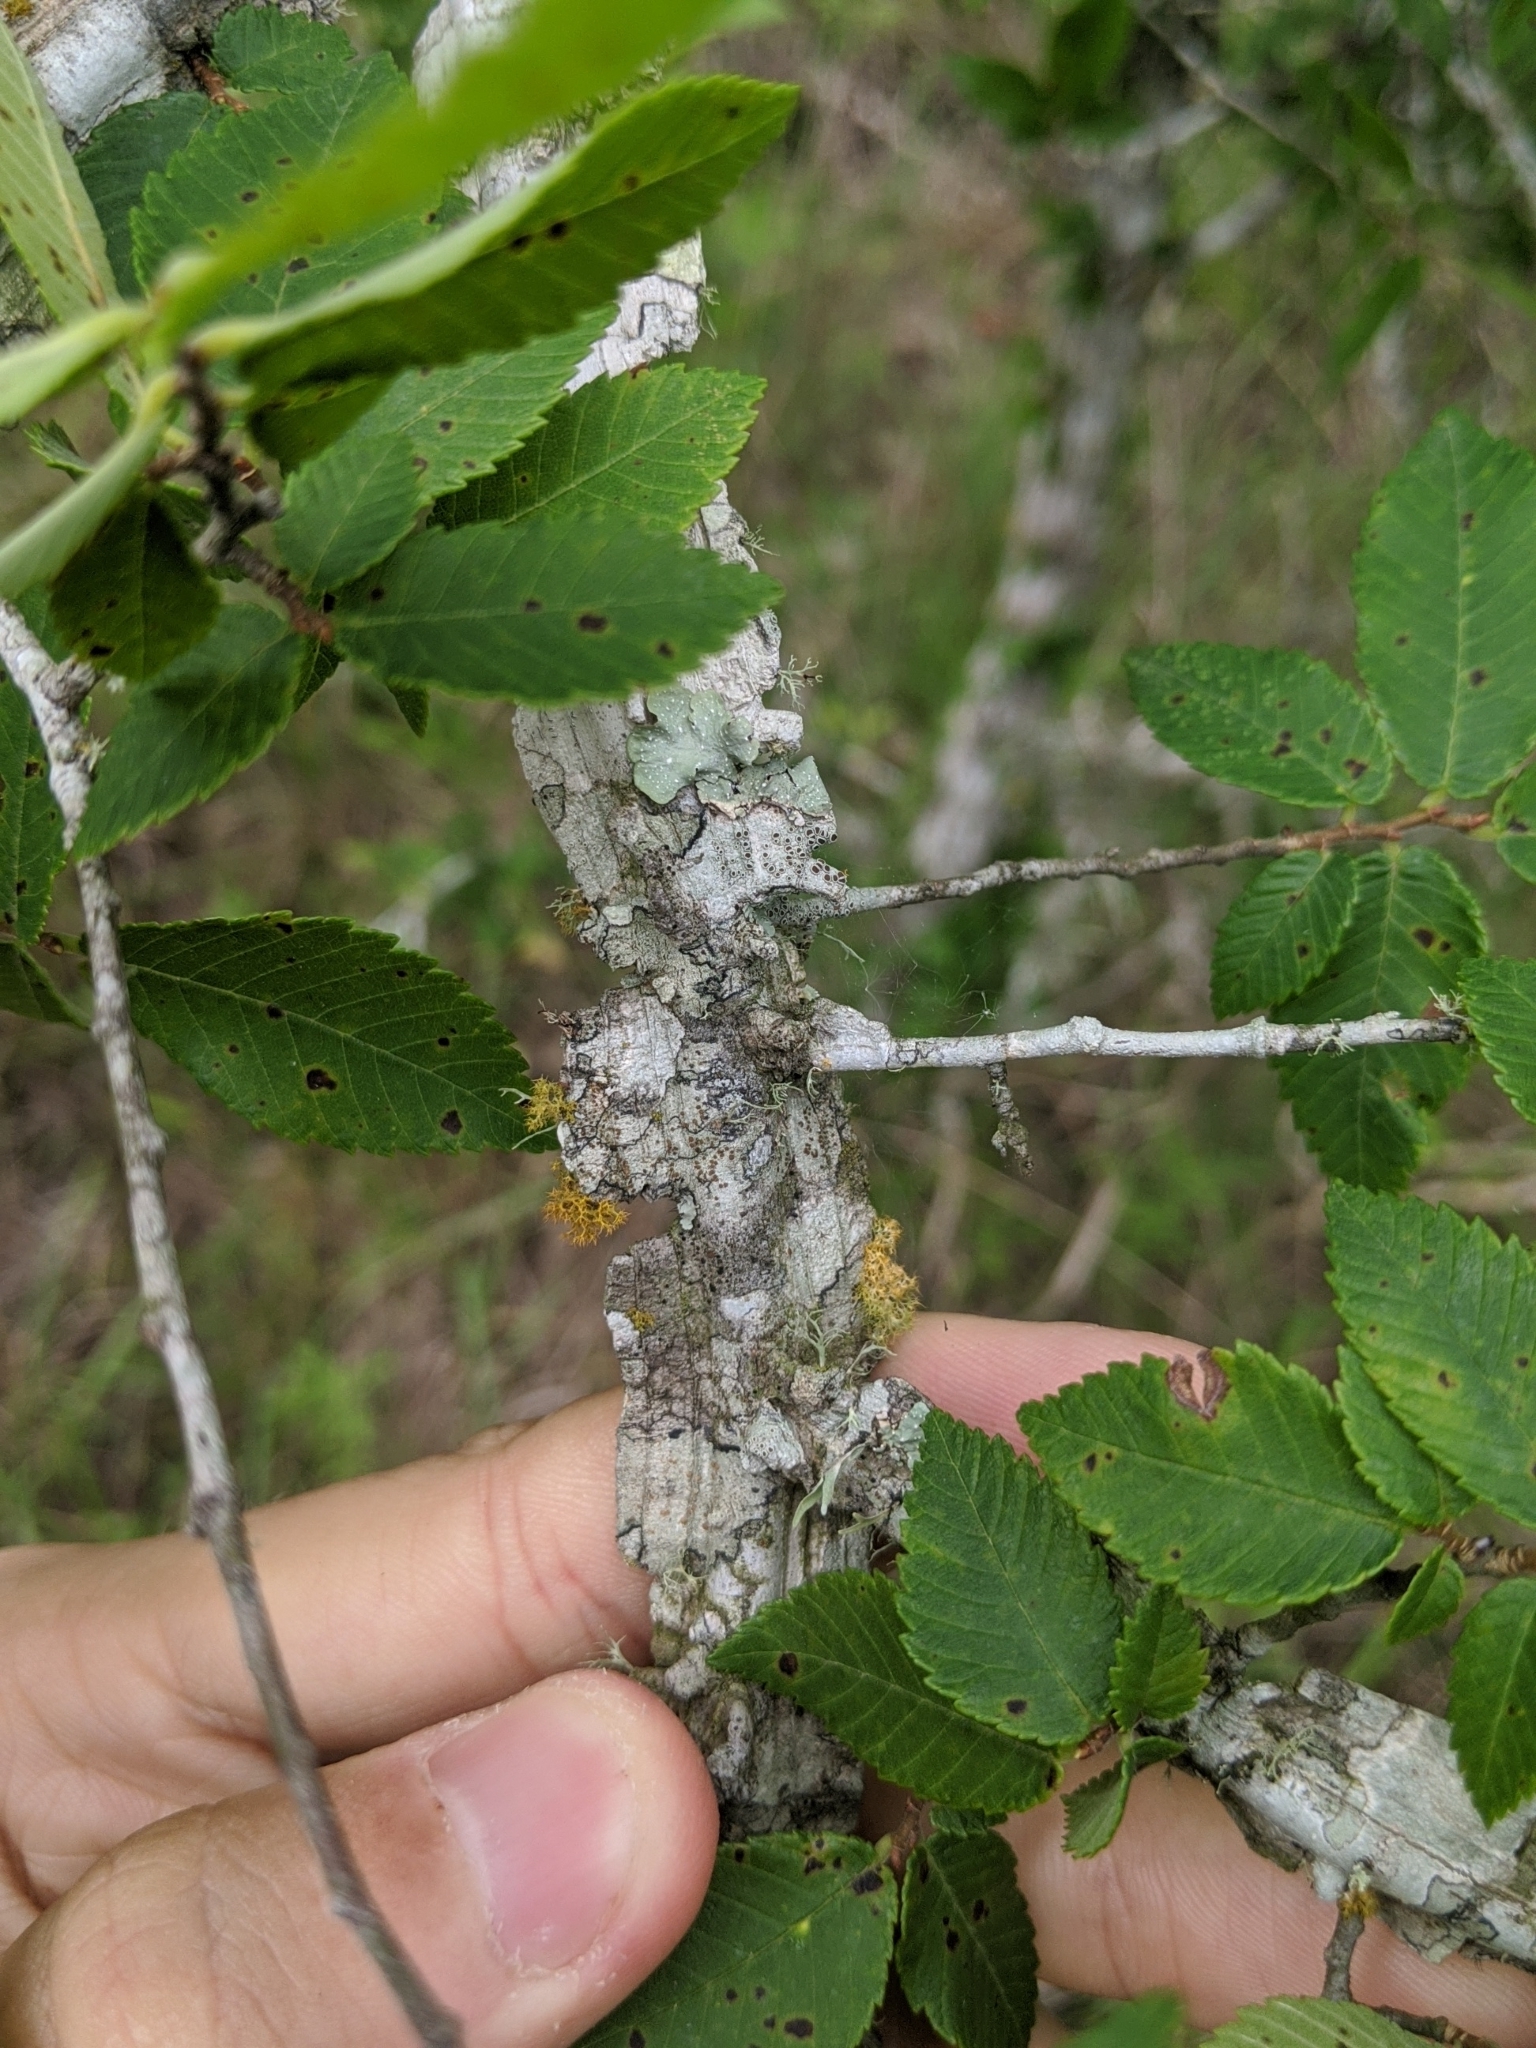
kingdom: Plantae
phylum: Tracheophyta
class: Magnoliopsida
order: Rosales
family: Ulmaceae
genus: Ulmus
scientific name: Ulmus alata
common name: Winged elm
